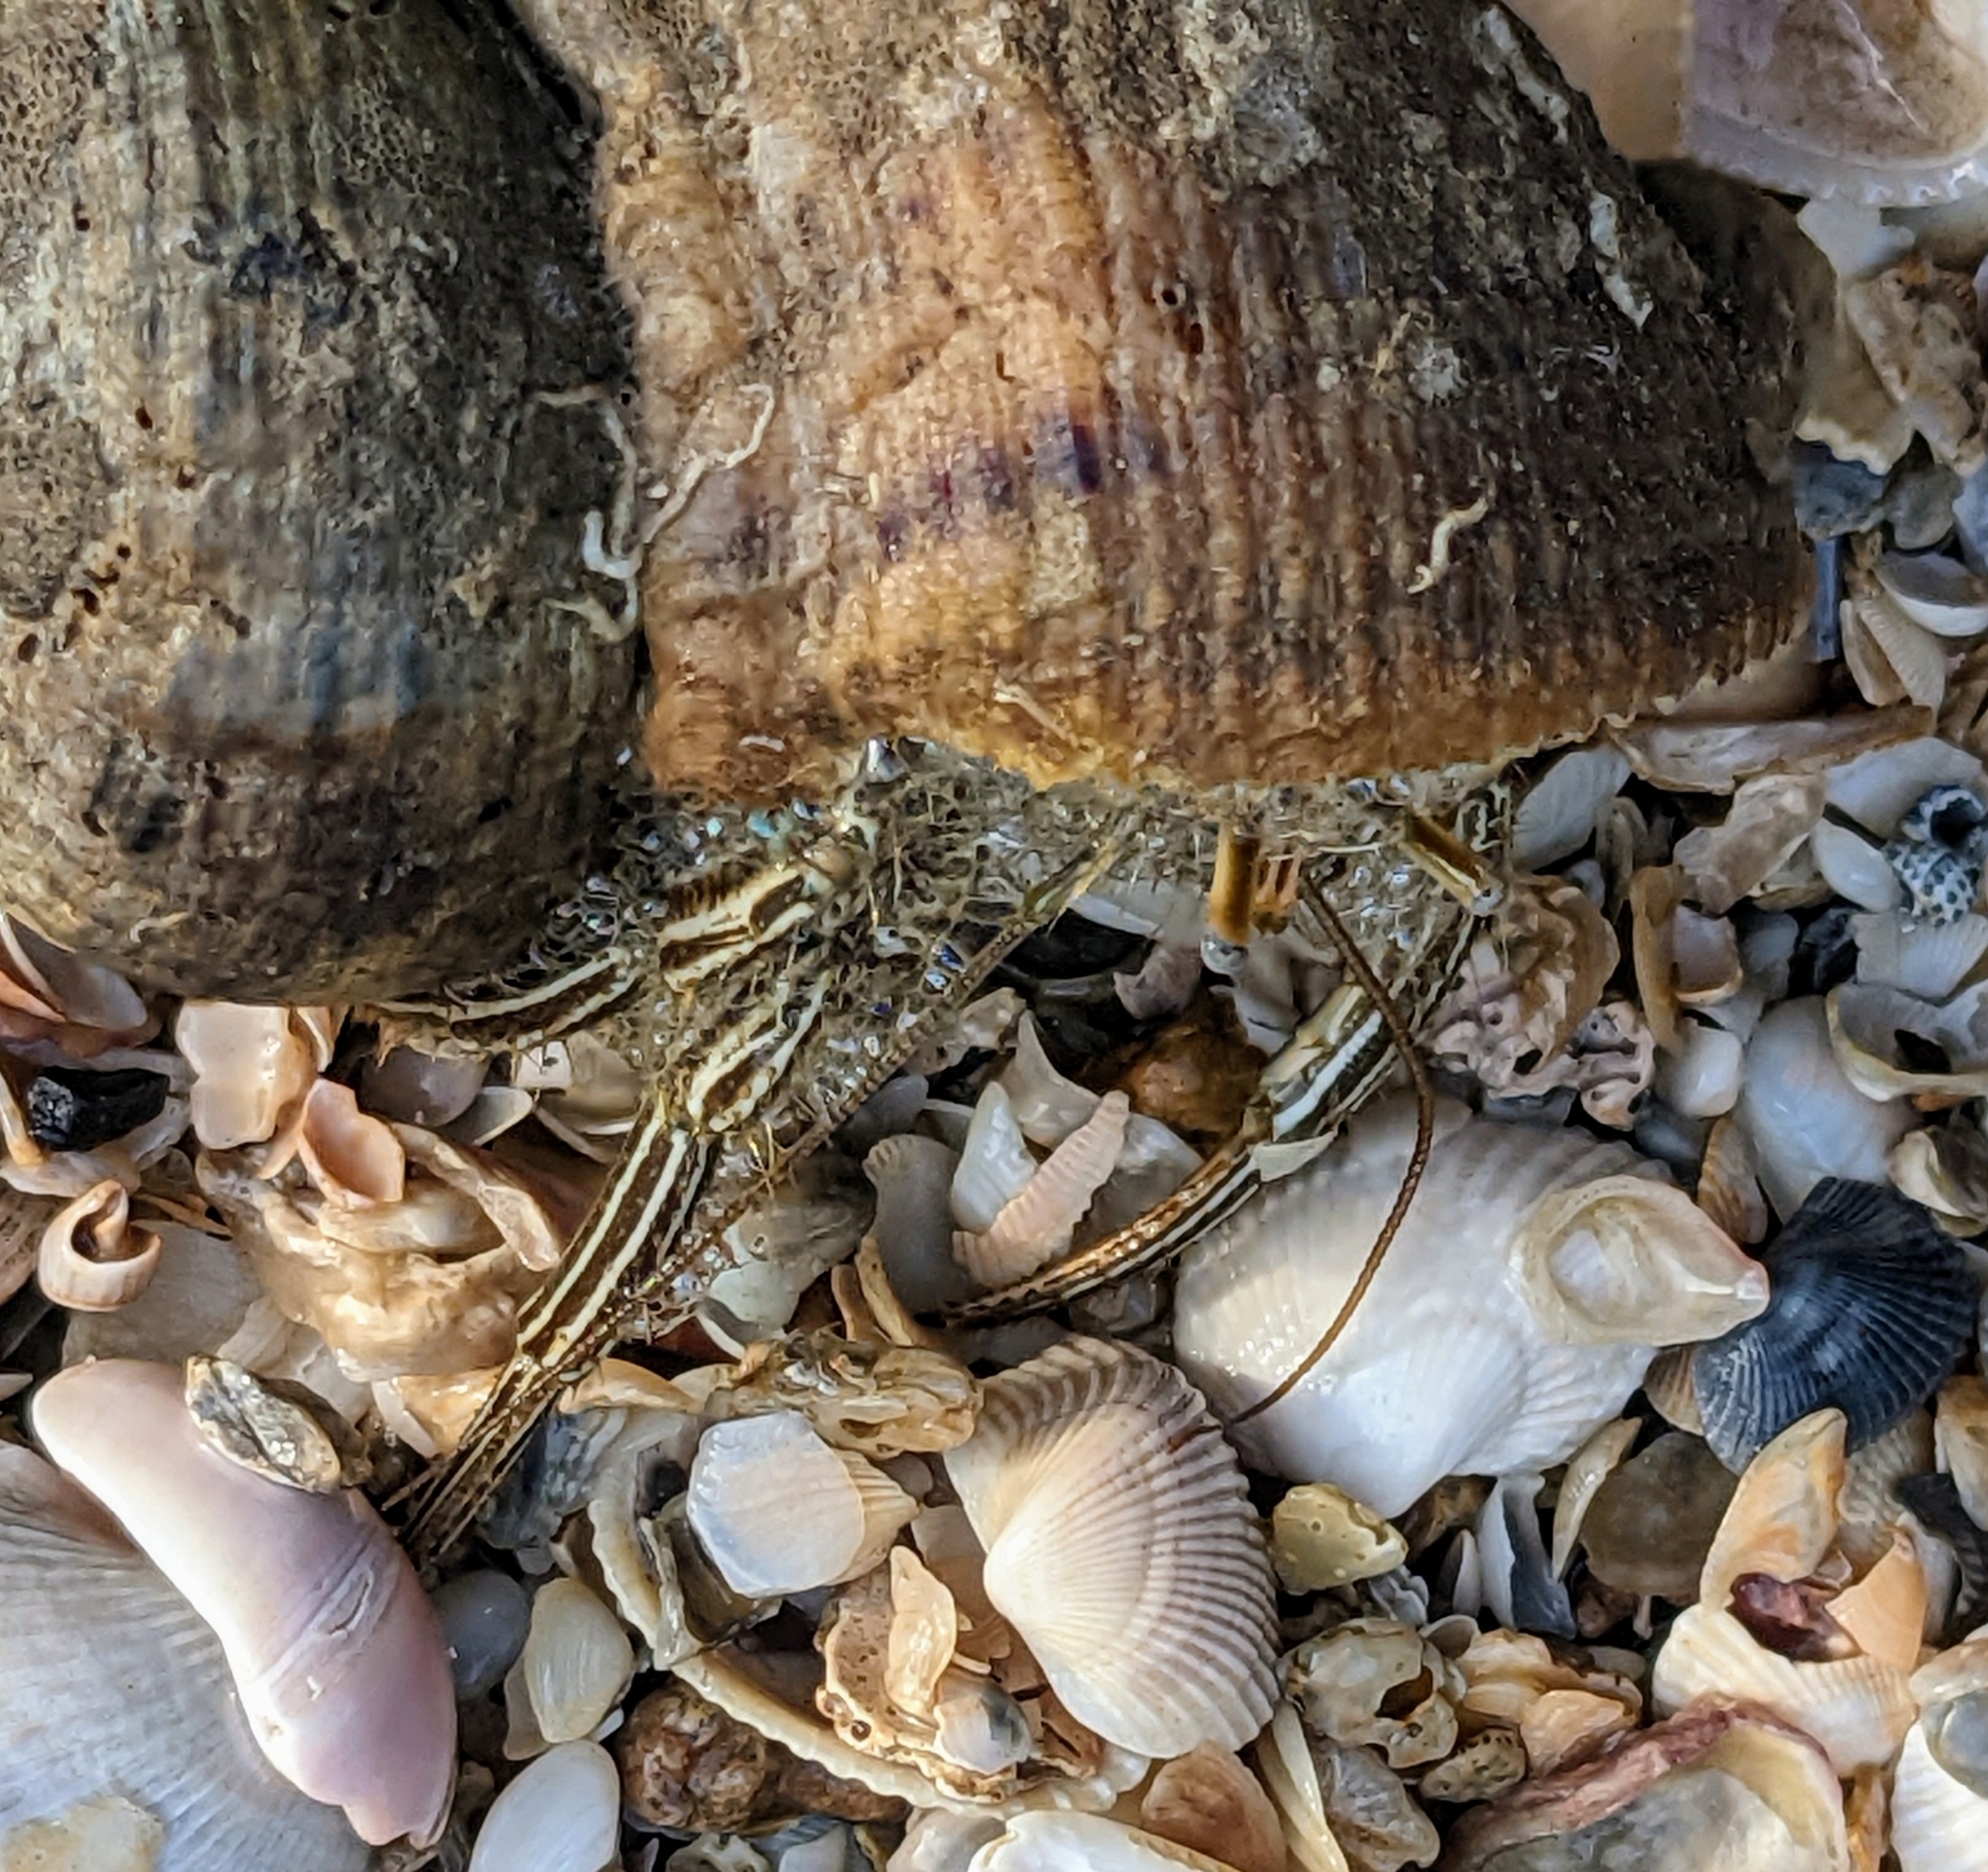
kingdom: Animalia
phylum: Arthropoda
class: Malacostraca
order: Decapoda
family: Diogenidae
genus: Clibanarius
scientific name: Clibanarius vittatus
